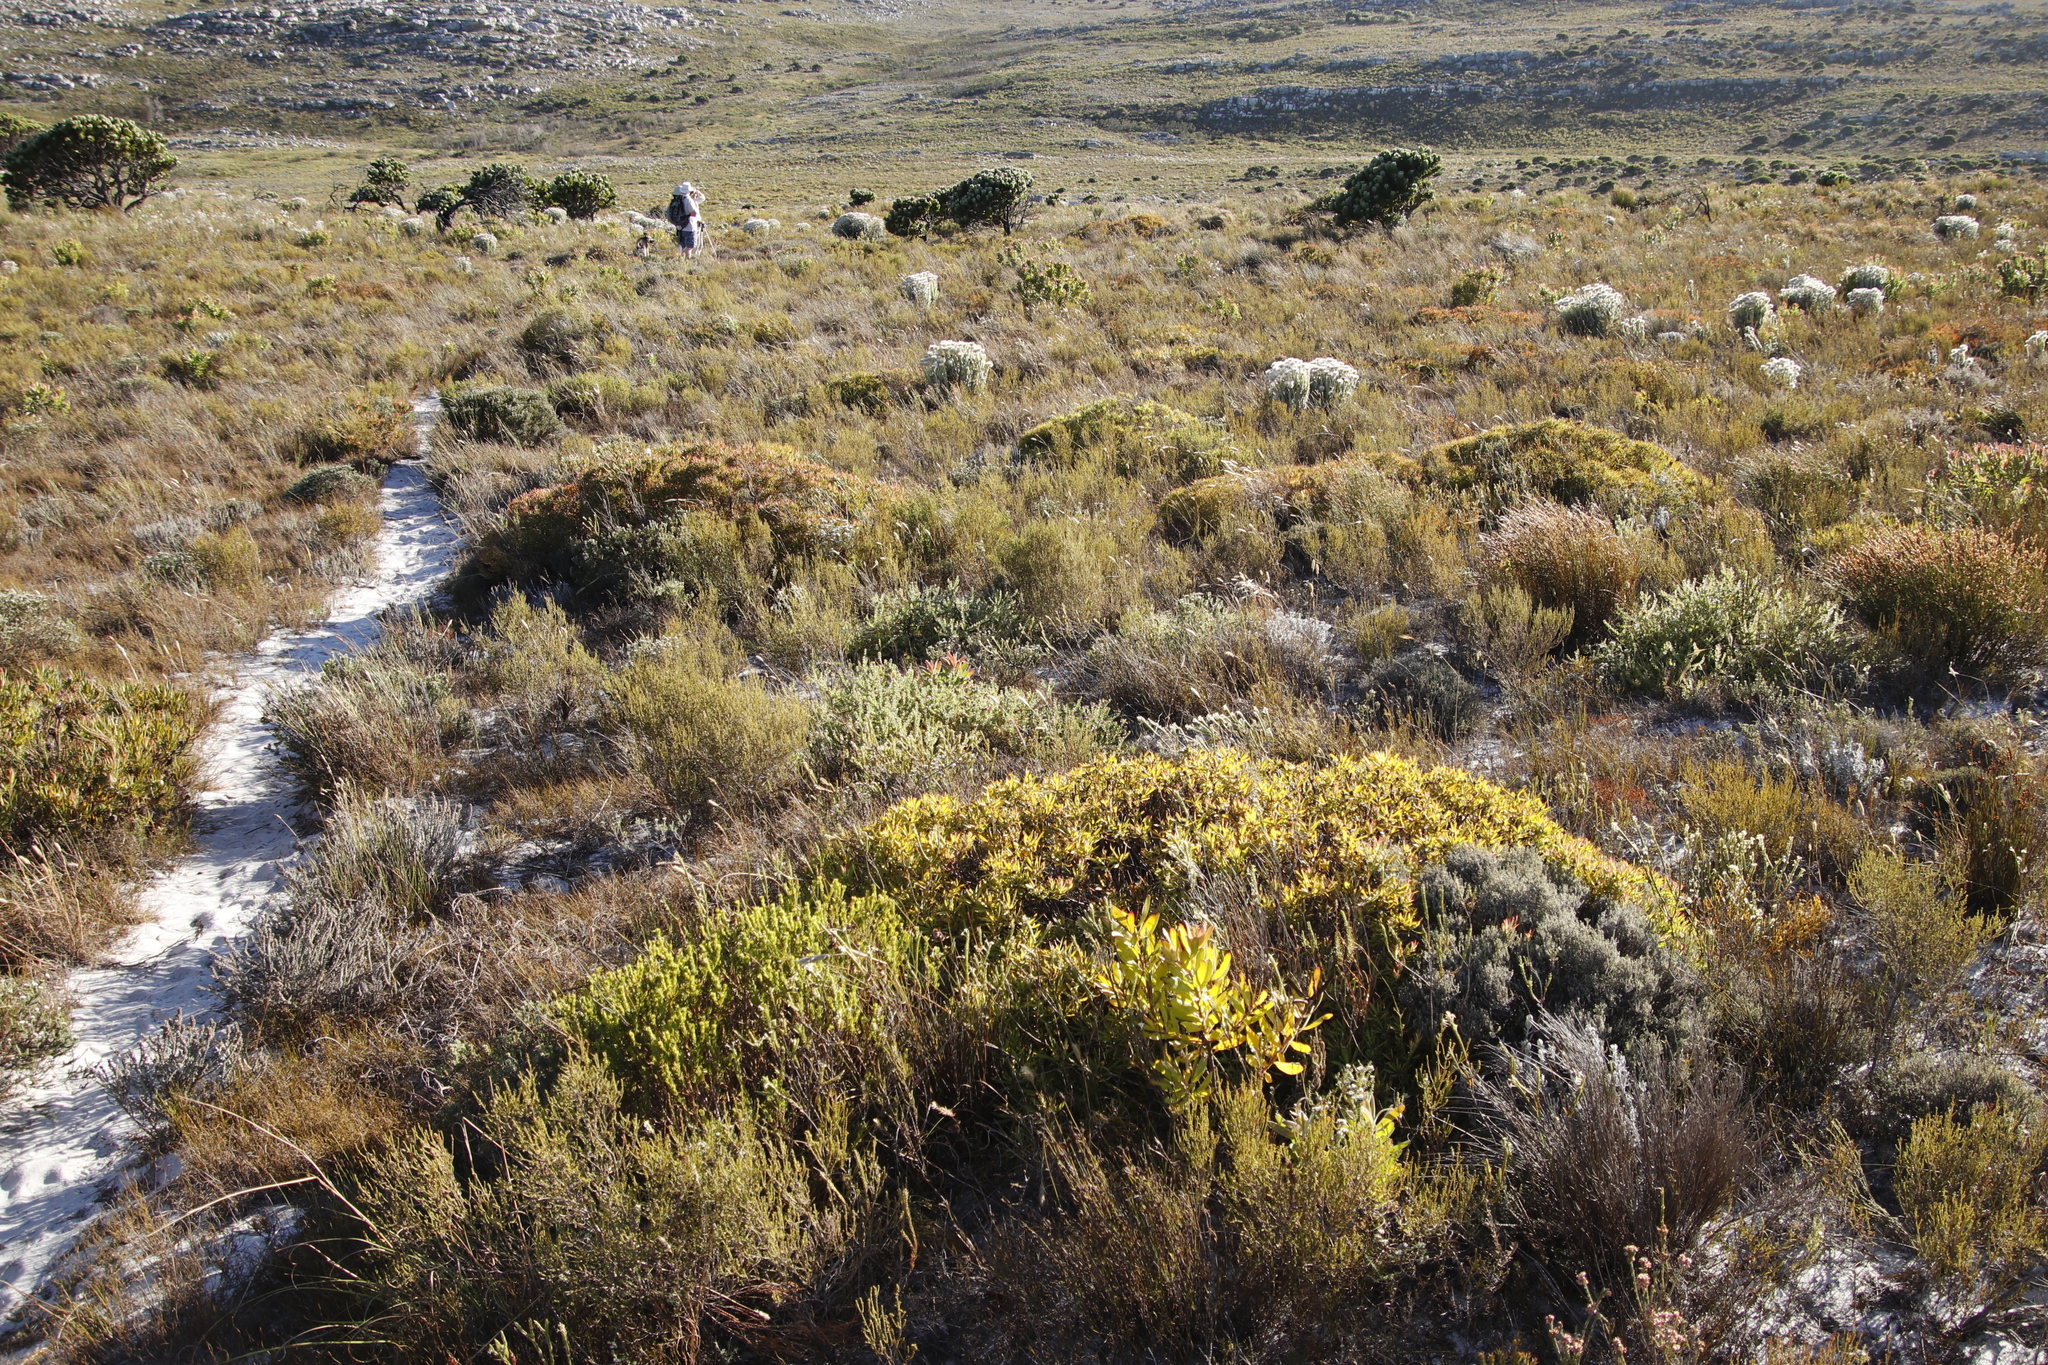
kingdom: Plantae
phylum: Tracheophyta
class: Magnoliopsida
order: Proteales
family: Proteaceae
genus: Leucadendron
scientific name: Leucadendron salignum
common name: Common sunshine conebush
